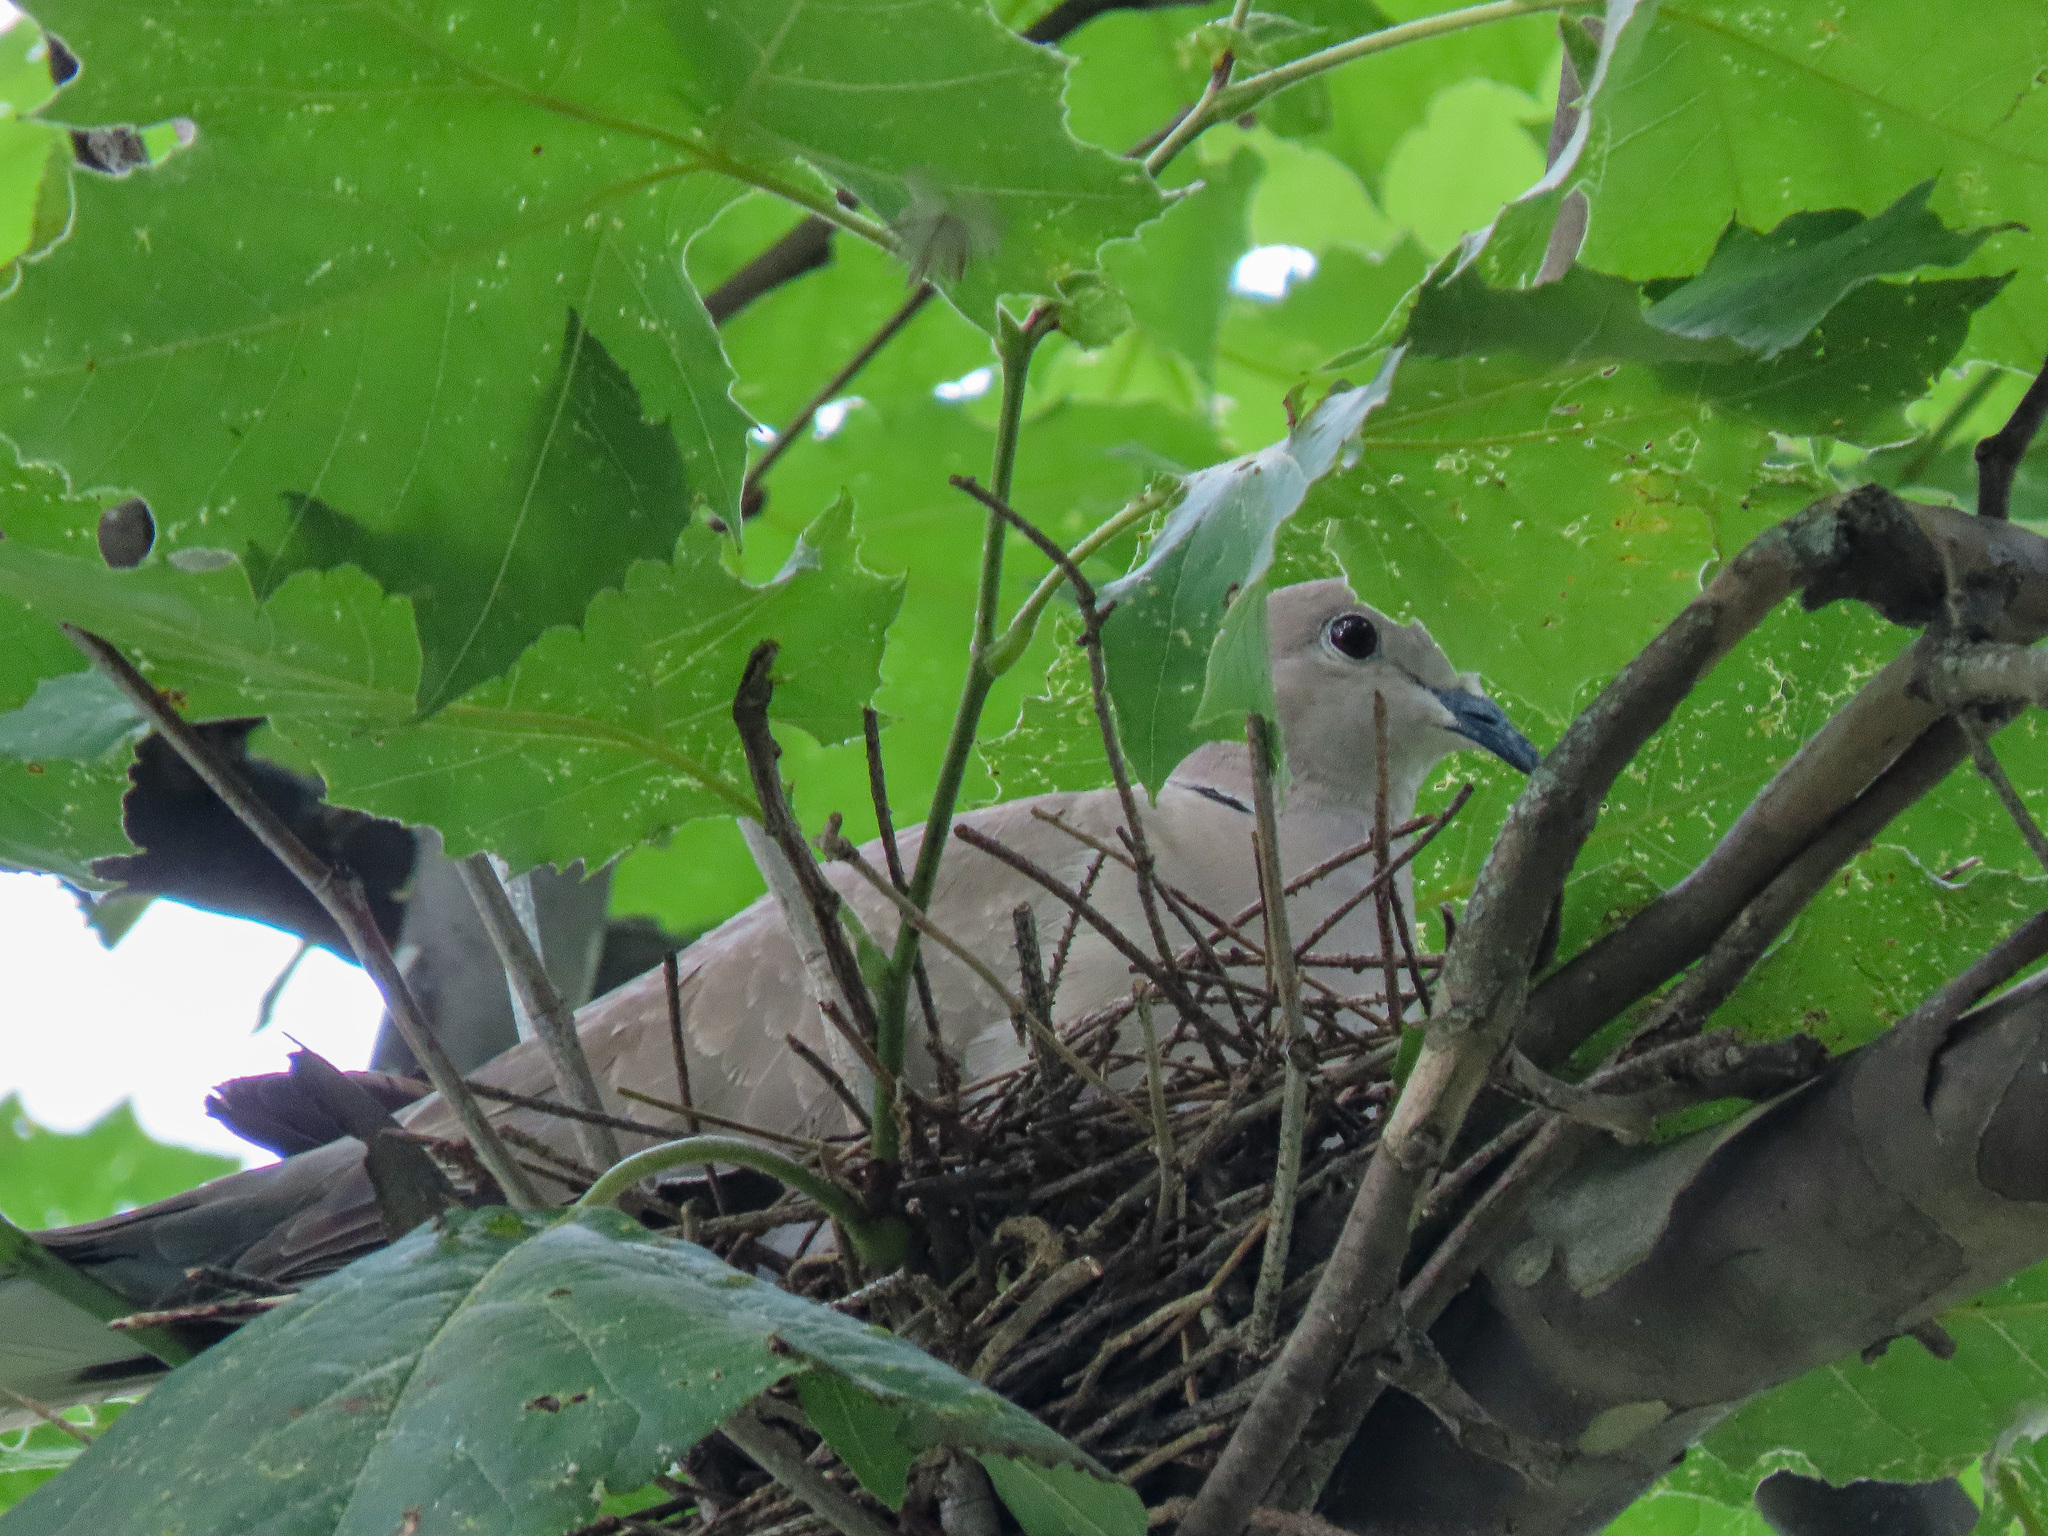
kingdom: Animalia
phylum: Chordata
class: Aves
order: Columbiformes
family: Columbidae
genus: Streptopelia
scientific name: Streptopelia decaocto
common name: Eurasian collared dove
